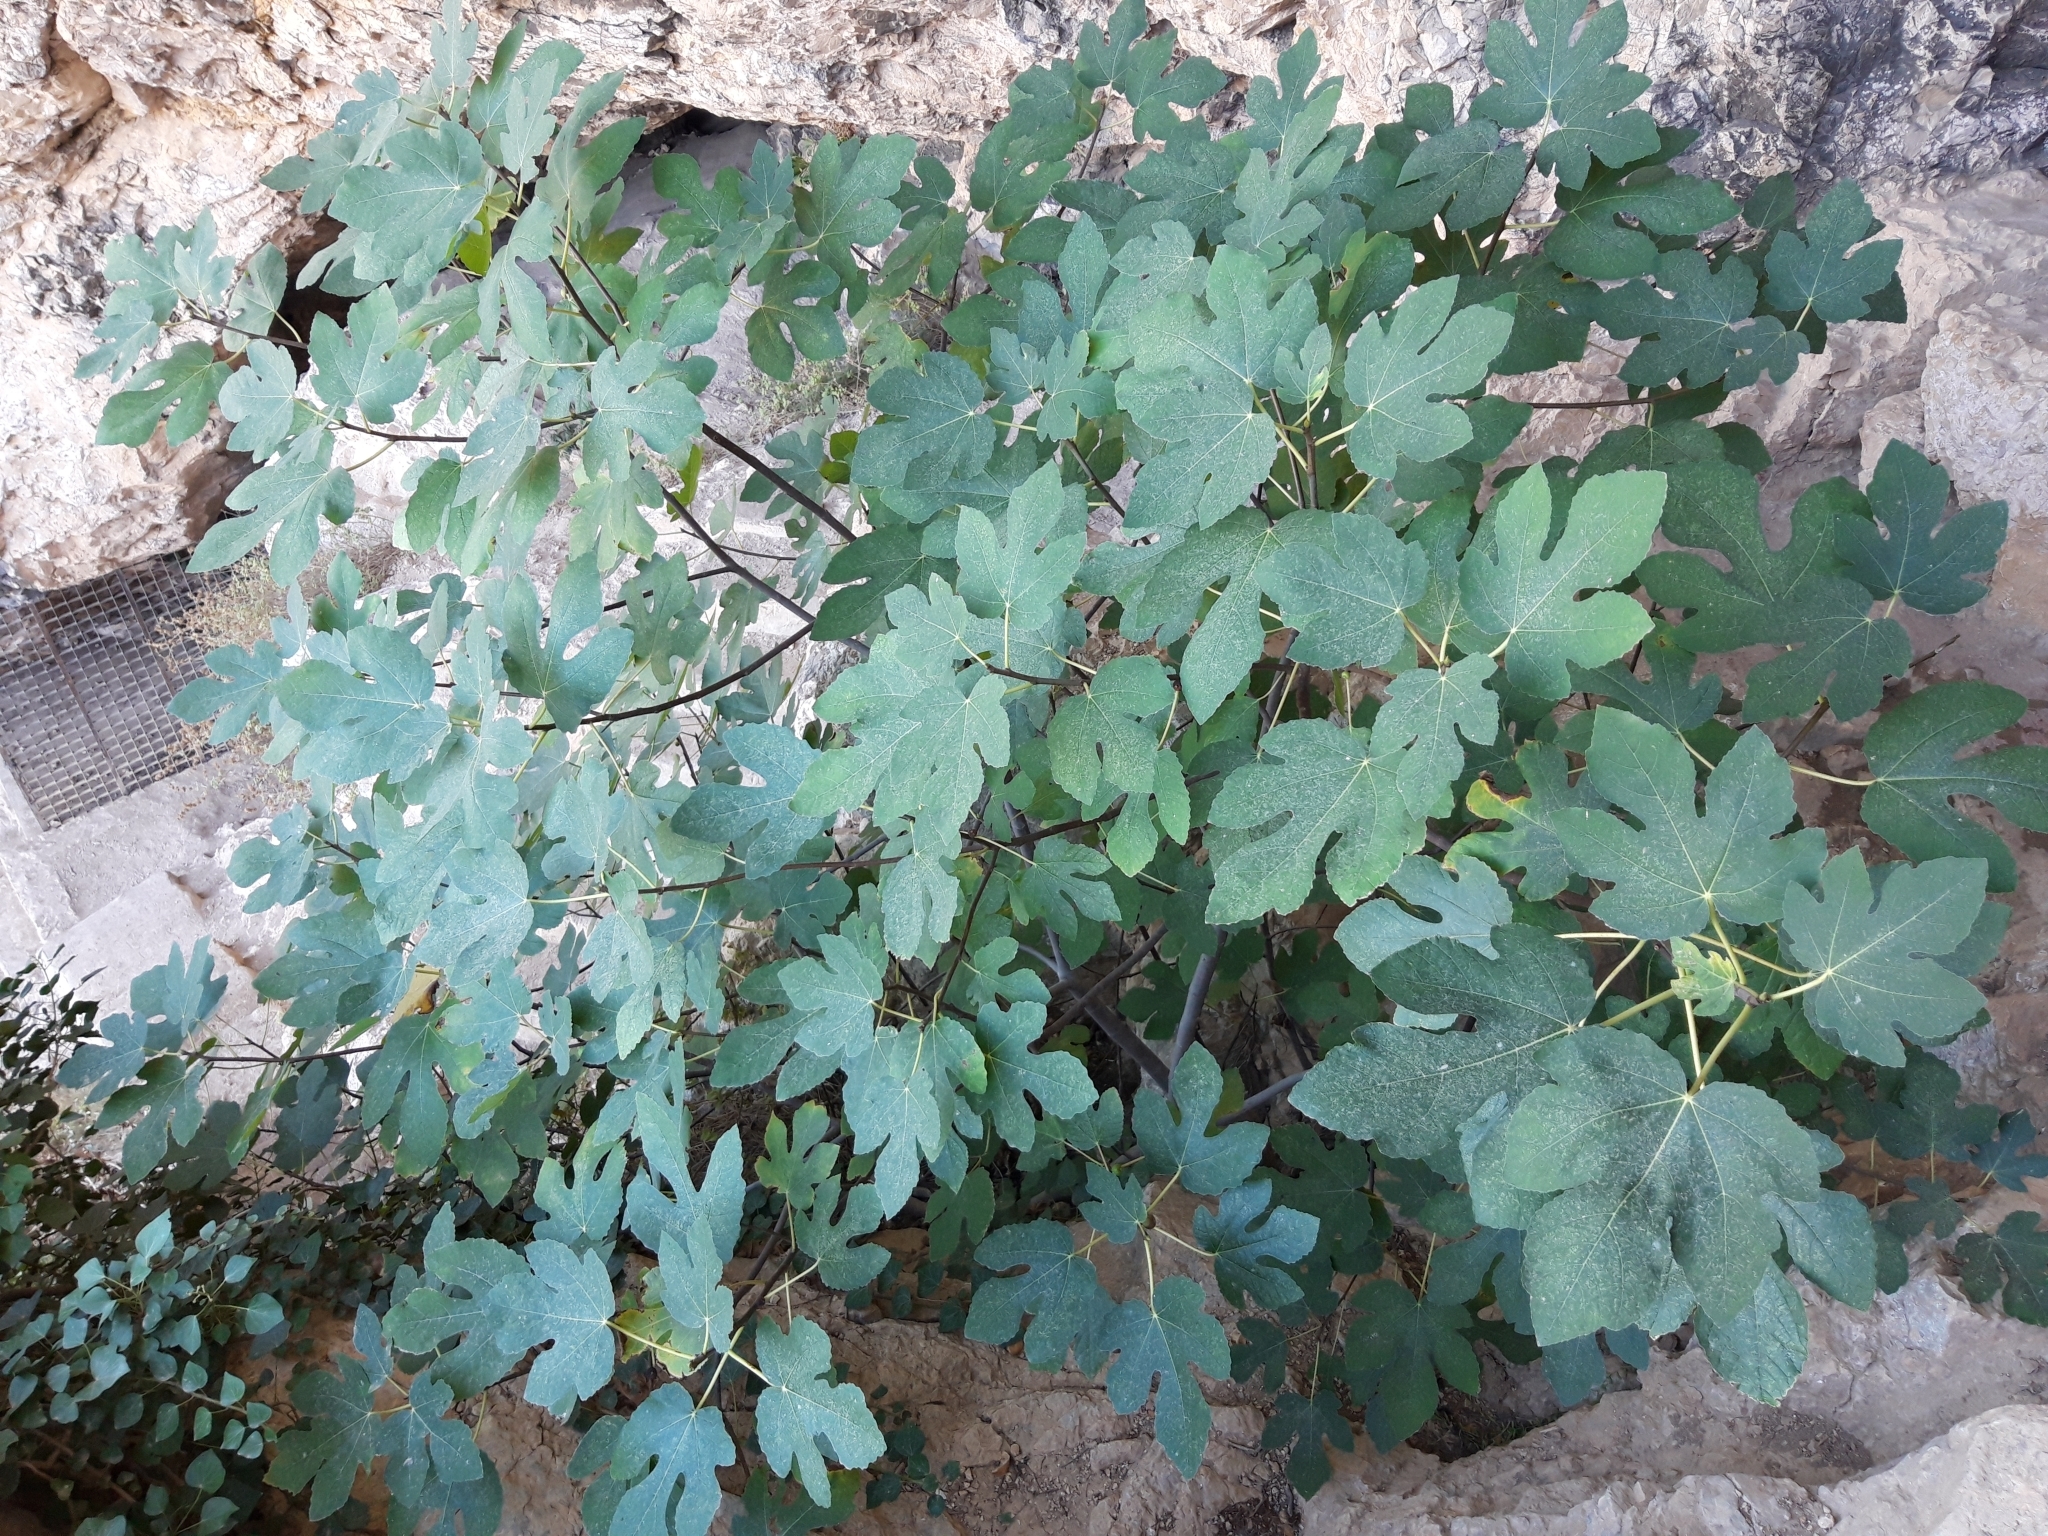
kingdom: Plantae
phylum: Tracheophyta
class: Magnoliopsida
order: Rosales
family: Moraceae
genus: Ficus
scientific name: Ficus carica
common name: Fig
